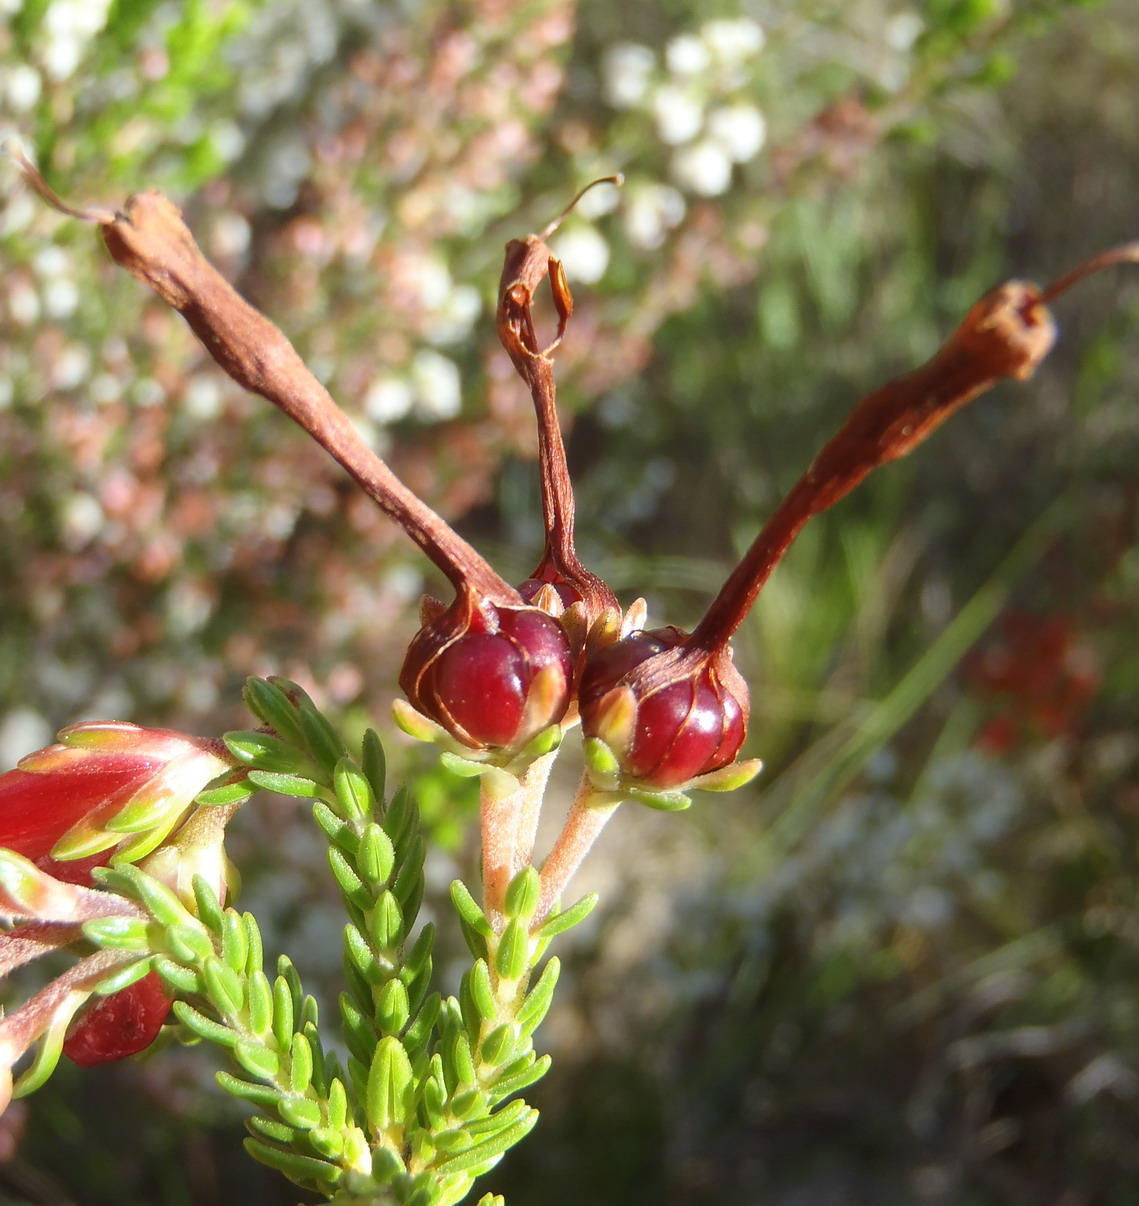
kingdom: Plantae
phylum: Tracheophyta
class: Magnoliopsida
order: Ericales
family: Ericaceae
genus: Erica
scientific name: Erica diaphana
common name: Heath
